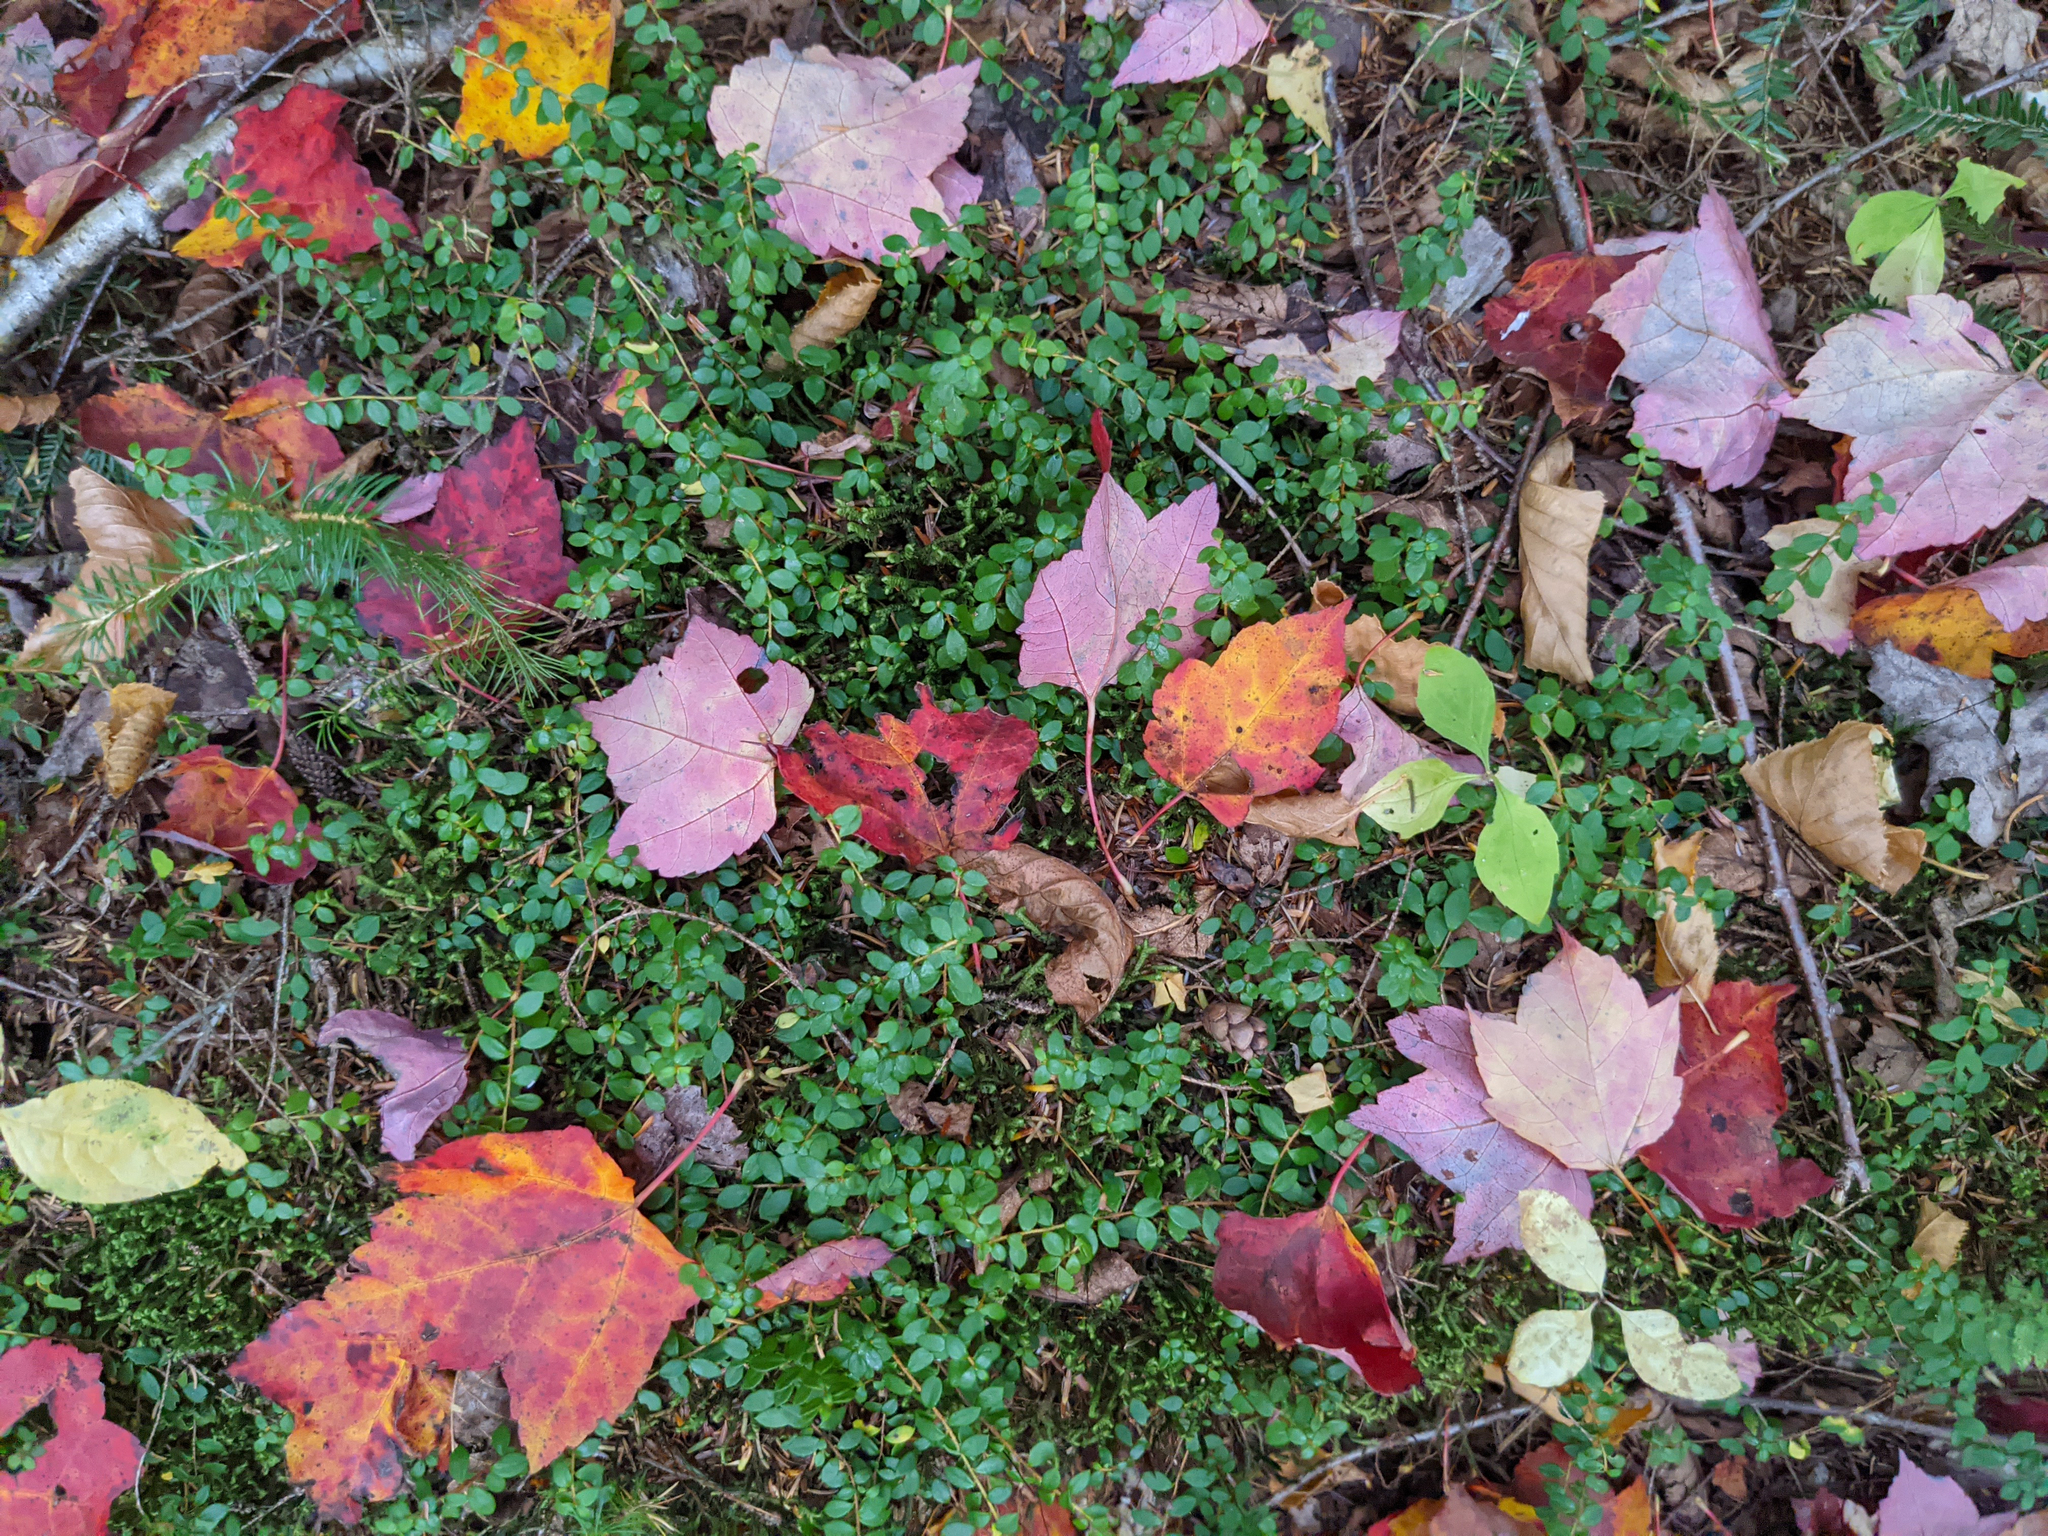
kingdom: Plantae
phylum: Tracheophyta
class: Magnoliopsida
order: Ericales
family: Ericaceae
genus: Gaultheria
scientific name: Gaultheria hispidula
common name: Cancer wintergreen
